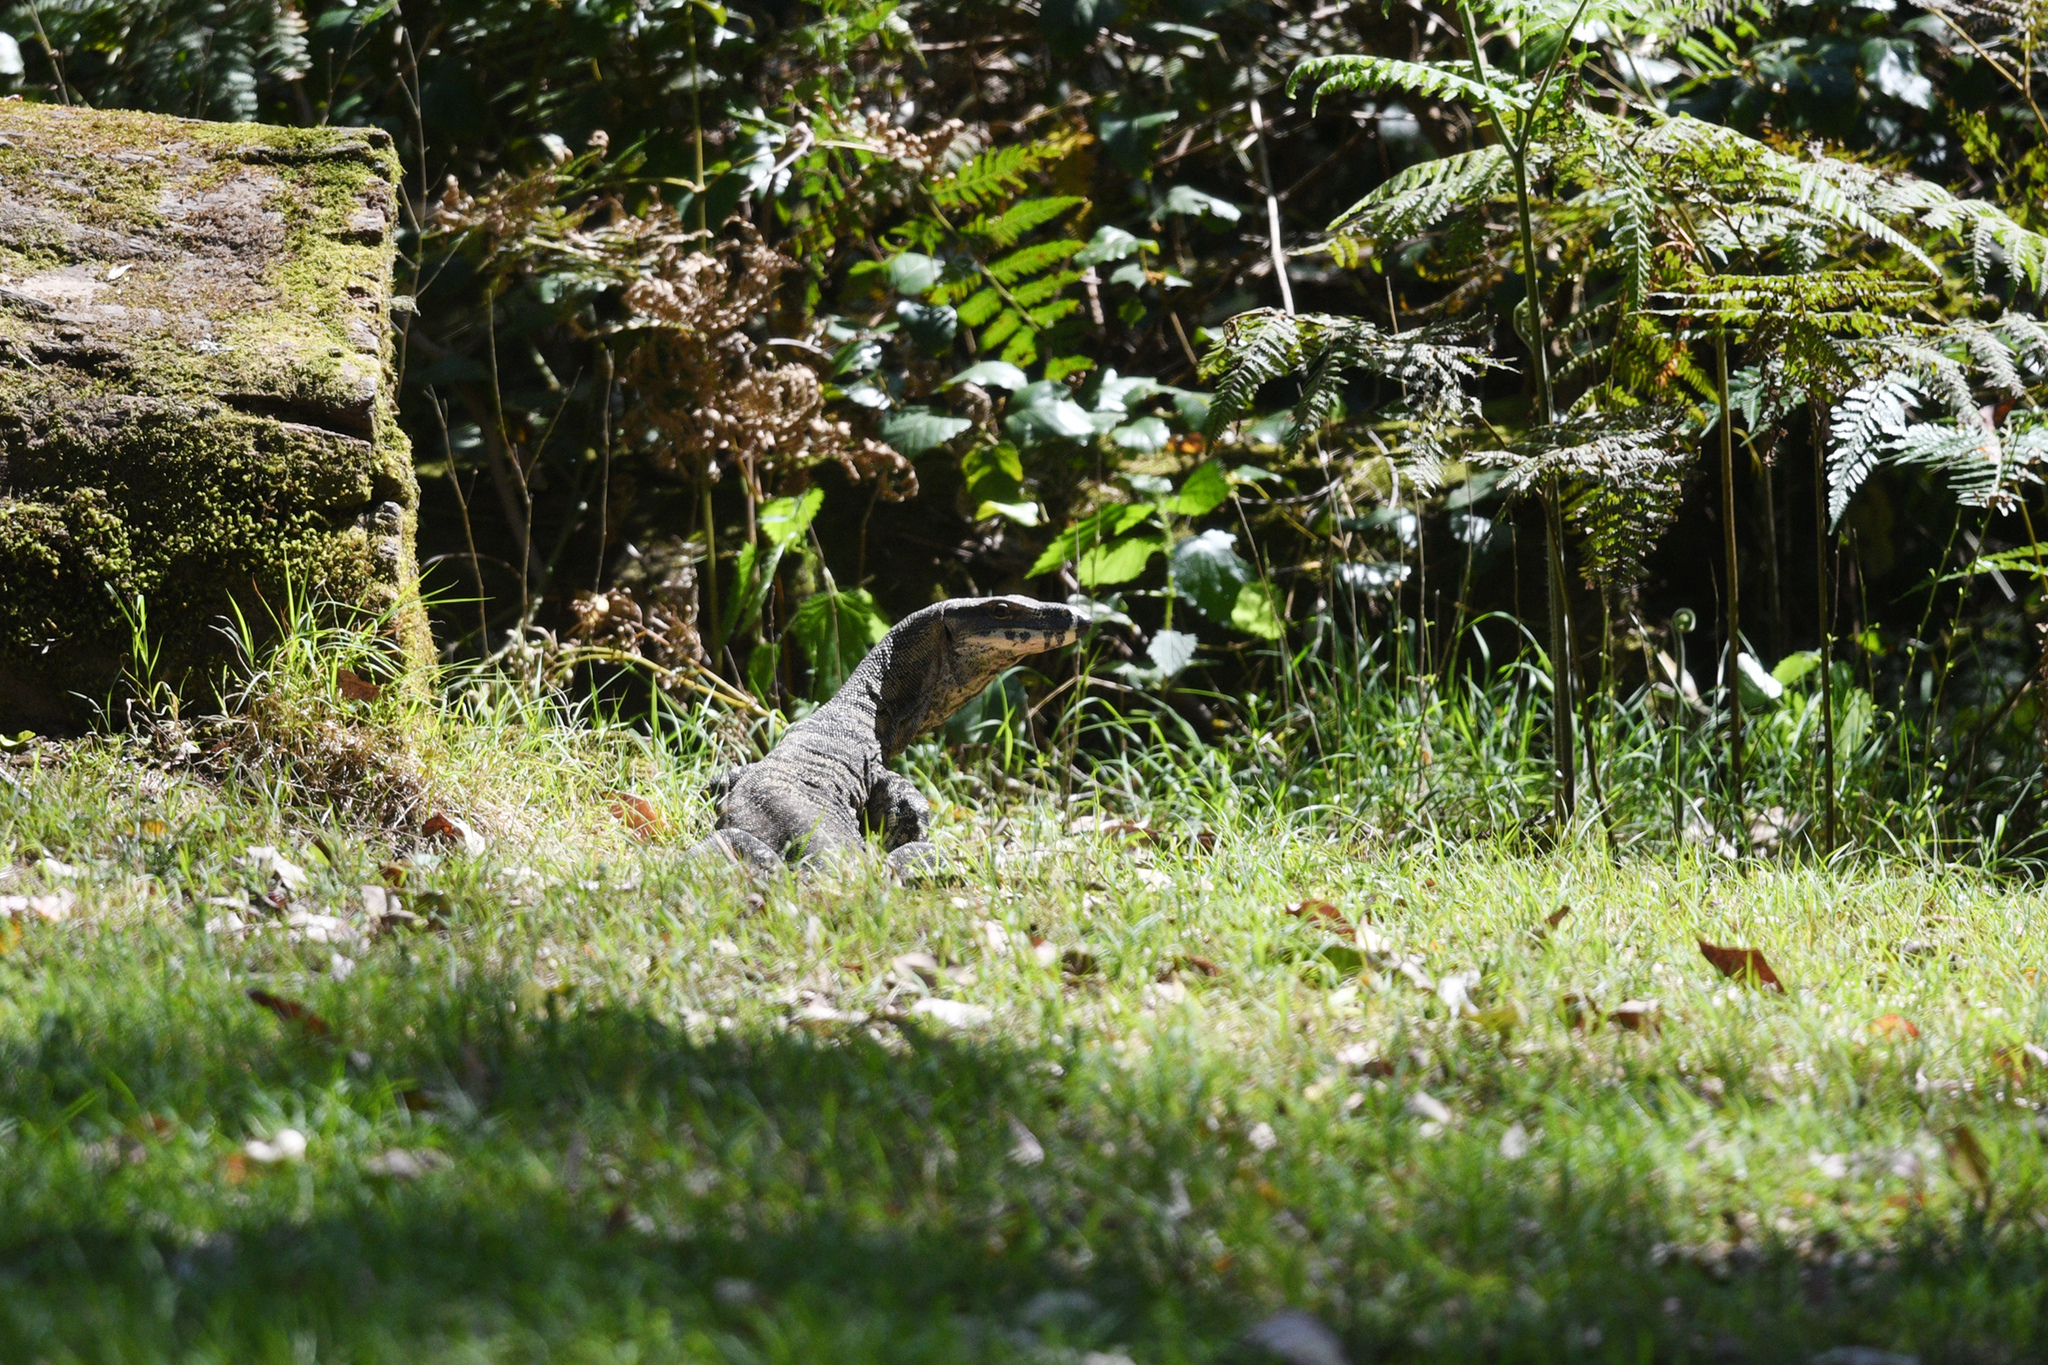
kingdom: Animalia
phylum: Chordata
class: Squamata
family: Varanidae
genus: Varanus
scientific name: Varanus varius
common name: Lace monitor
